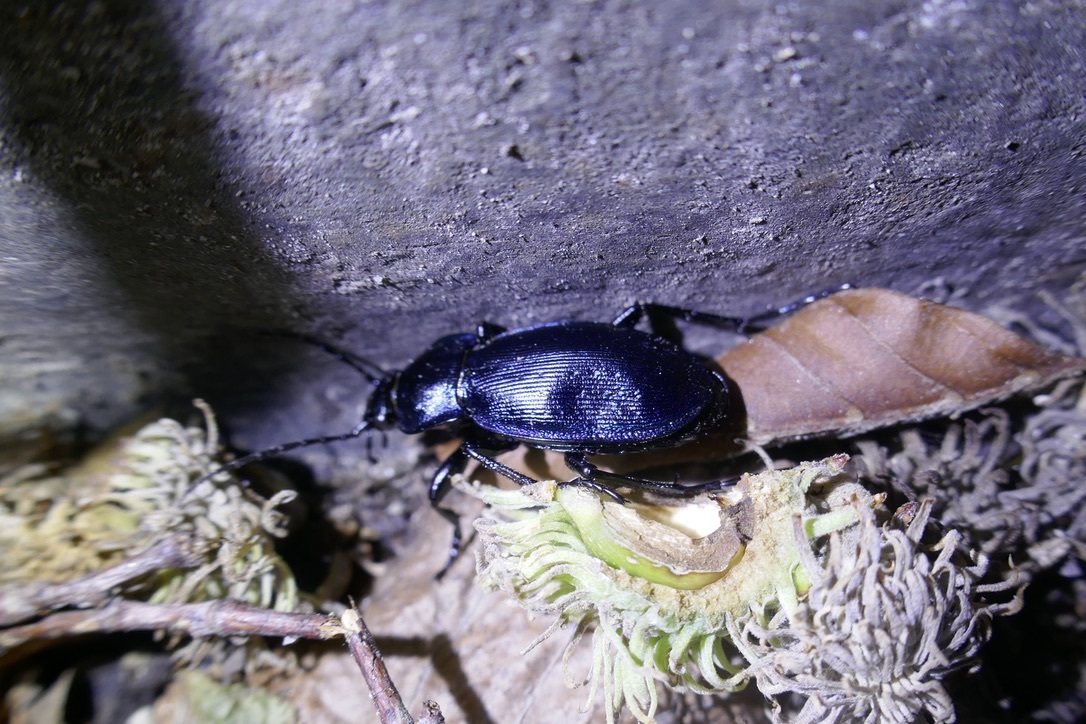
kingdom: Animalia
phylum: Arthropoda
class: Insecta
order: Coleoptera
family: Carabidae
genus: Carabus
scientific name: Carabus scheidleri
